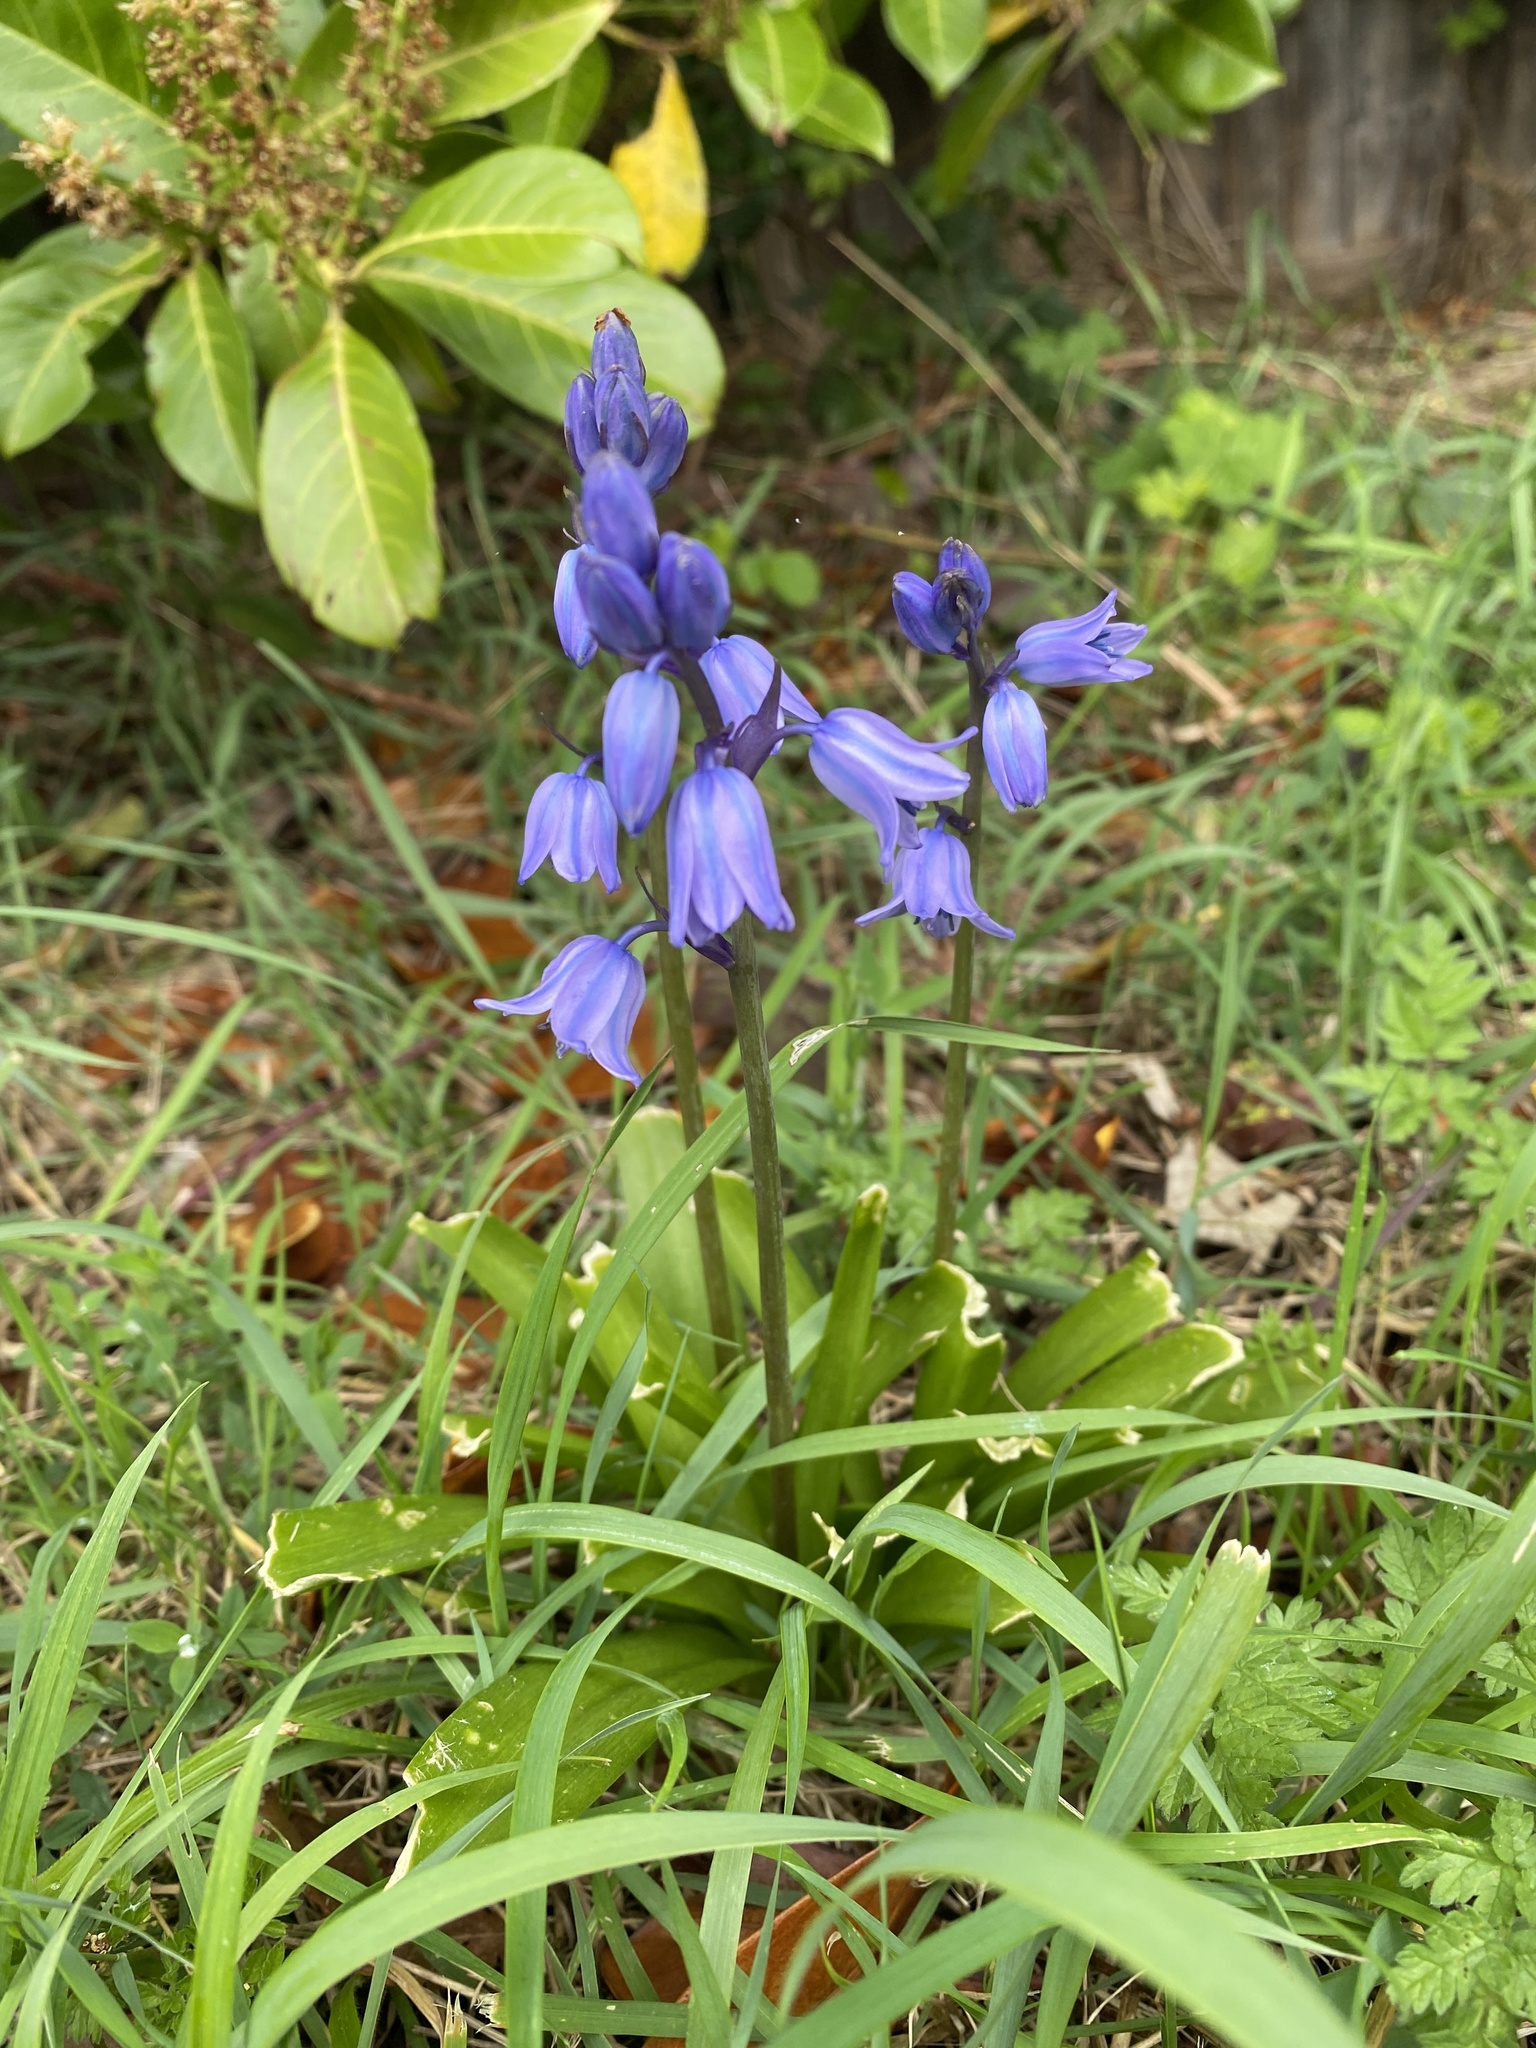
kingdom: Plantae
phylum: Tracheophyta
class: Liliopsida
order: Asparagales
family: Asparagaceae
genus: Hyacinthoides
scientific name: Hyacinthoides hispanica
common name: Spanish bluebell
